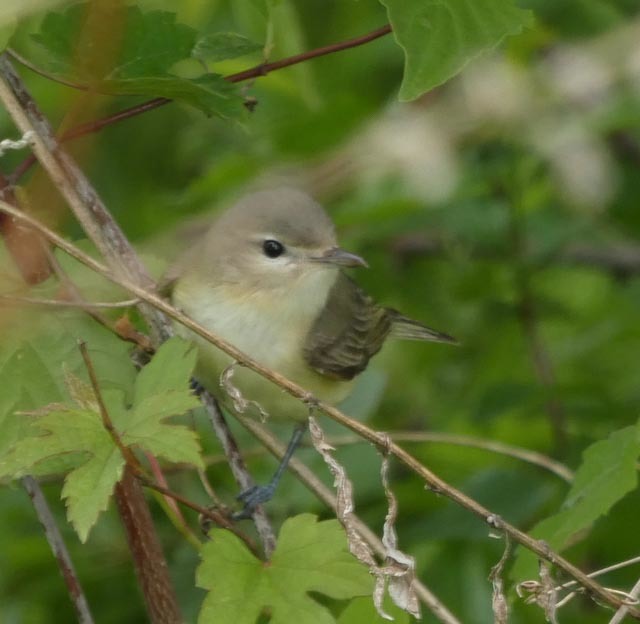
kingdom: Animalia
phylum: Chordata
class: Aves
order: Passeriformes
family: Vireonidae
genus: Vireo
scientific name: Vireo gilvus
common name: Warbling vireo
